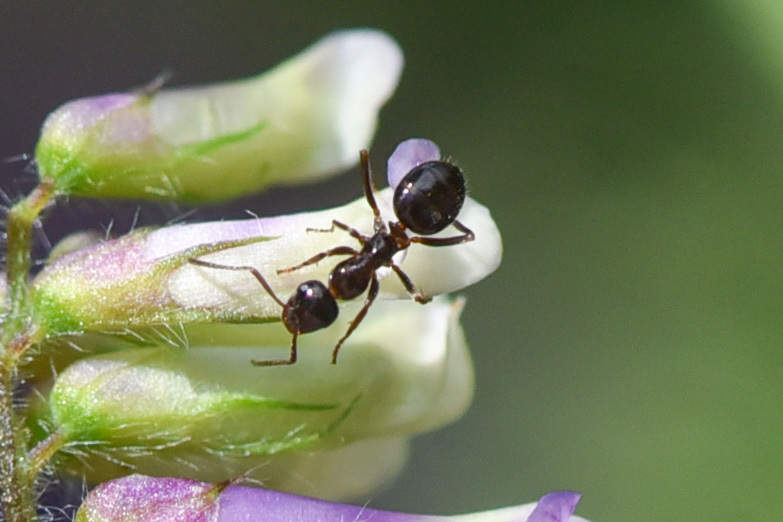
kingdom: Animalia
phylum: Arthropoda
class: Insecta
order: Hymenoptera
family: Formicidae
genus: Formica
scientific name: Formica
